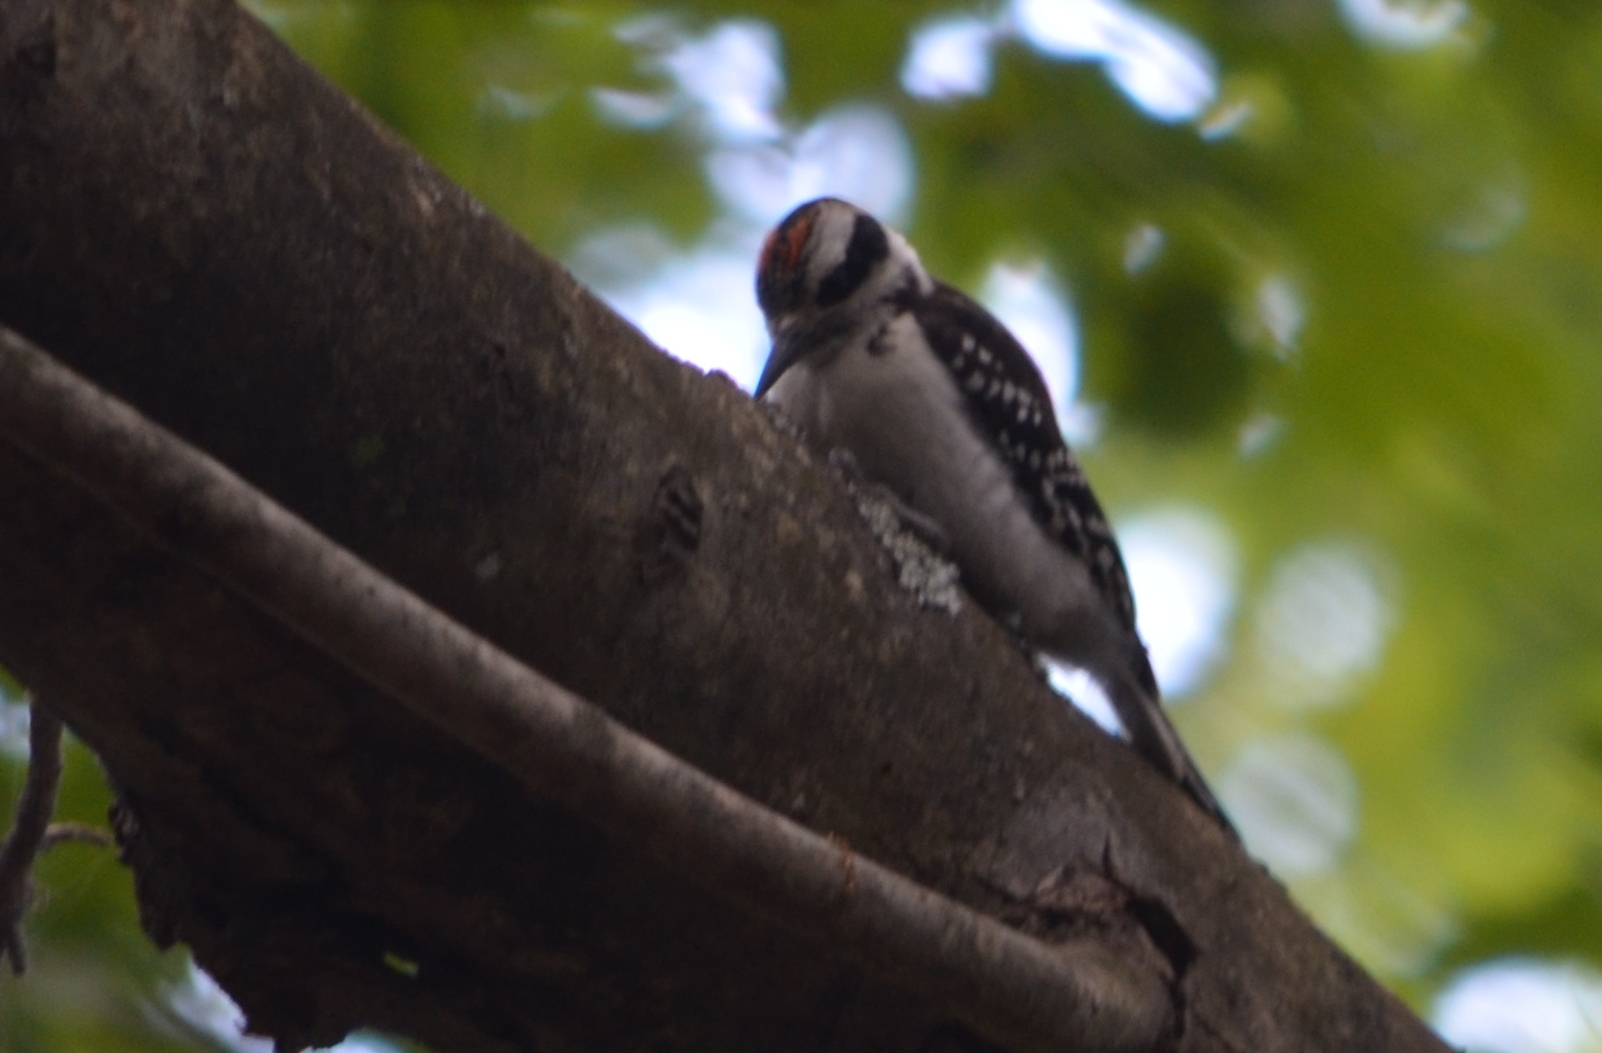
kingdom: Animalia
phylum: Chordata
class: Aves
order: Piciformes
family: Picidae
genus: Leuconotopicus
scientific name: Leuconotopicus villosus
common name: Hairy woodpecker
